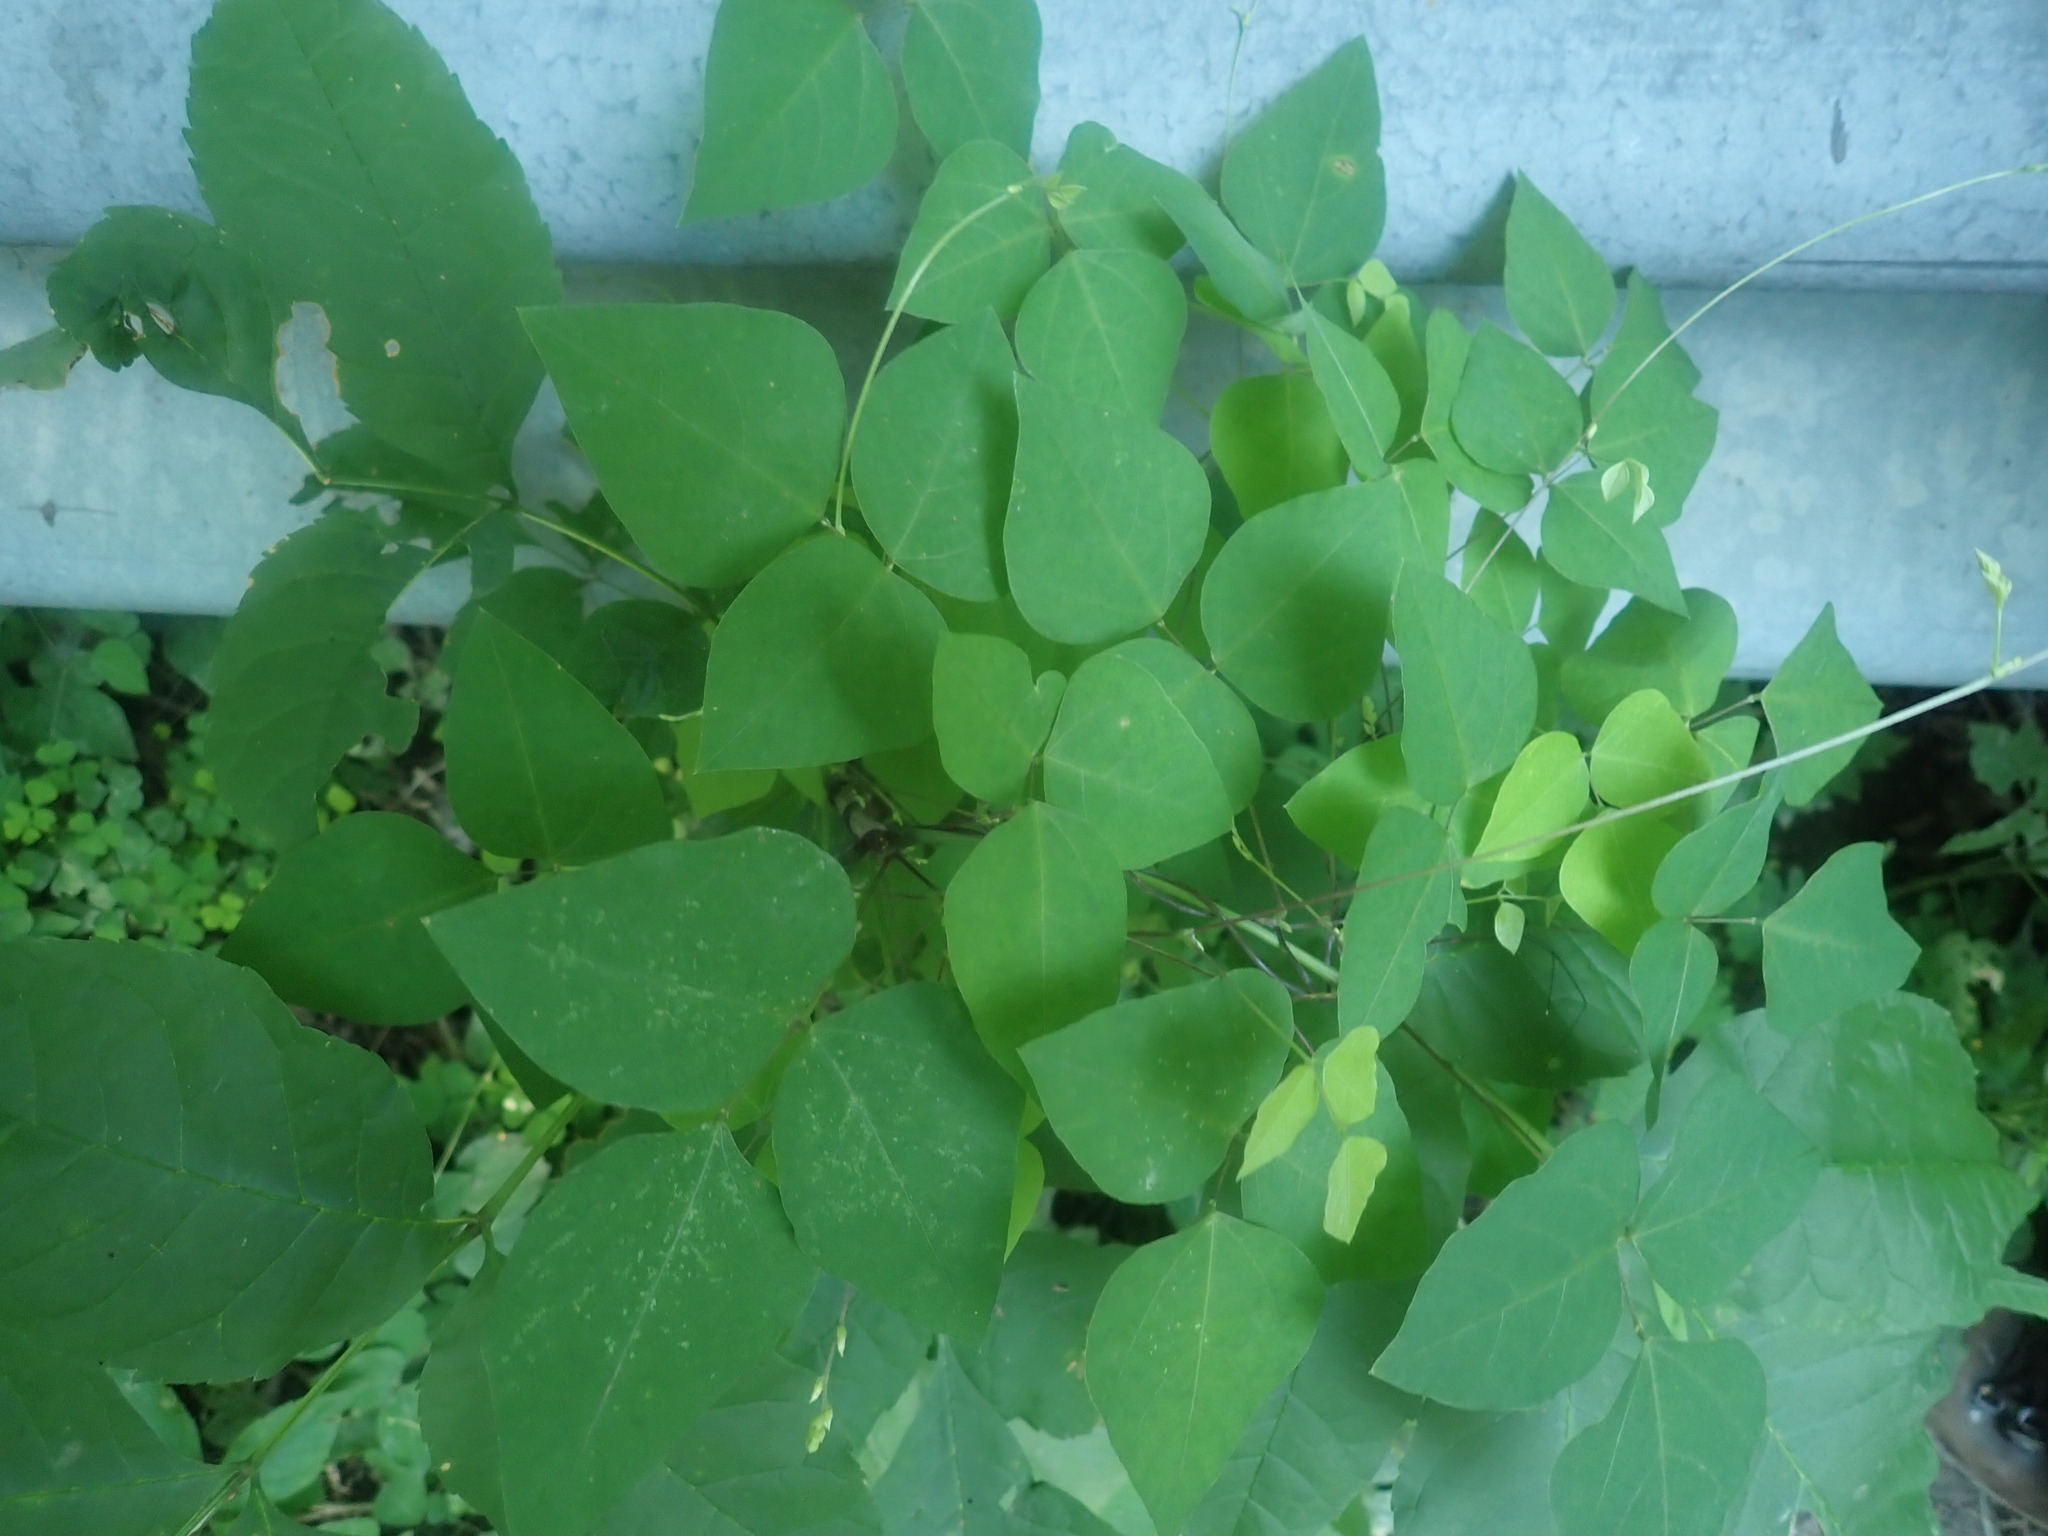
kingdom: Plantae
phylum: Tracheophyta
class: Magnoliopsida
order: Fabales
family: Fabaceae
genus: Amphicarpaea
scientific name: Amphicarpaea bracteata
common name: American hog peanut
